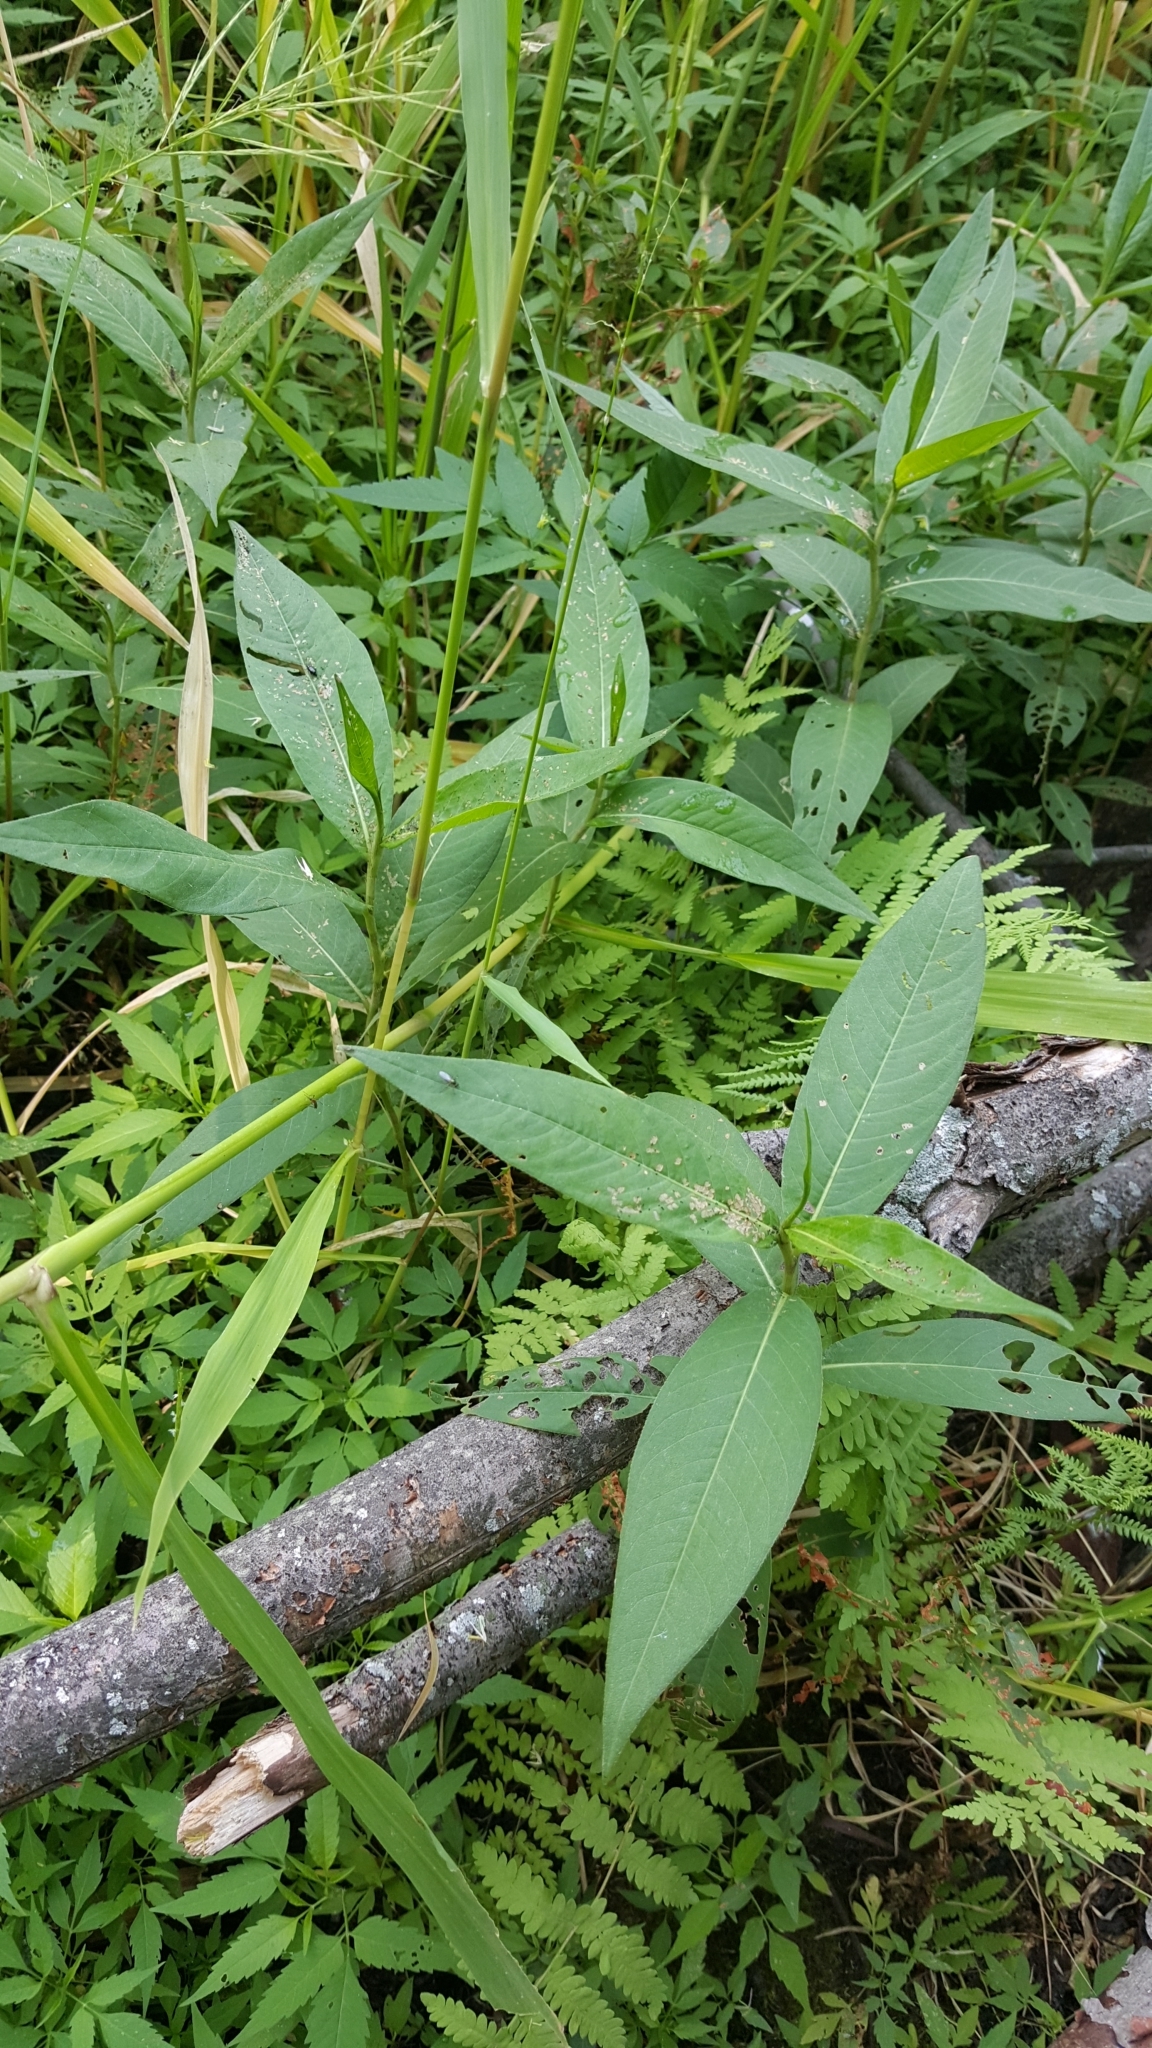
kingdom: Plantae
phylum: Tracheophyta
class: Magnoliopsida
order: Caryophyllales
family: Polygonaceae
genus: Persicaria
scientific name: Persicaria amphibia
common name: Amphibious bistort
